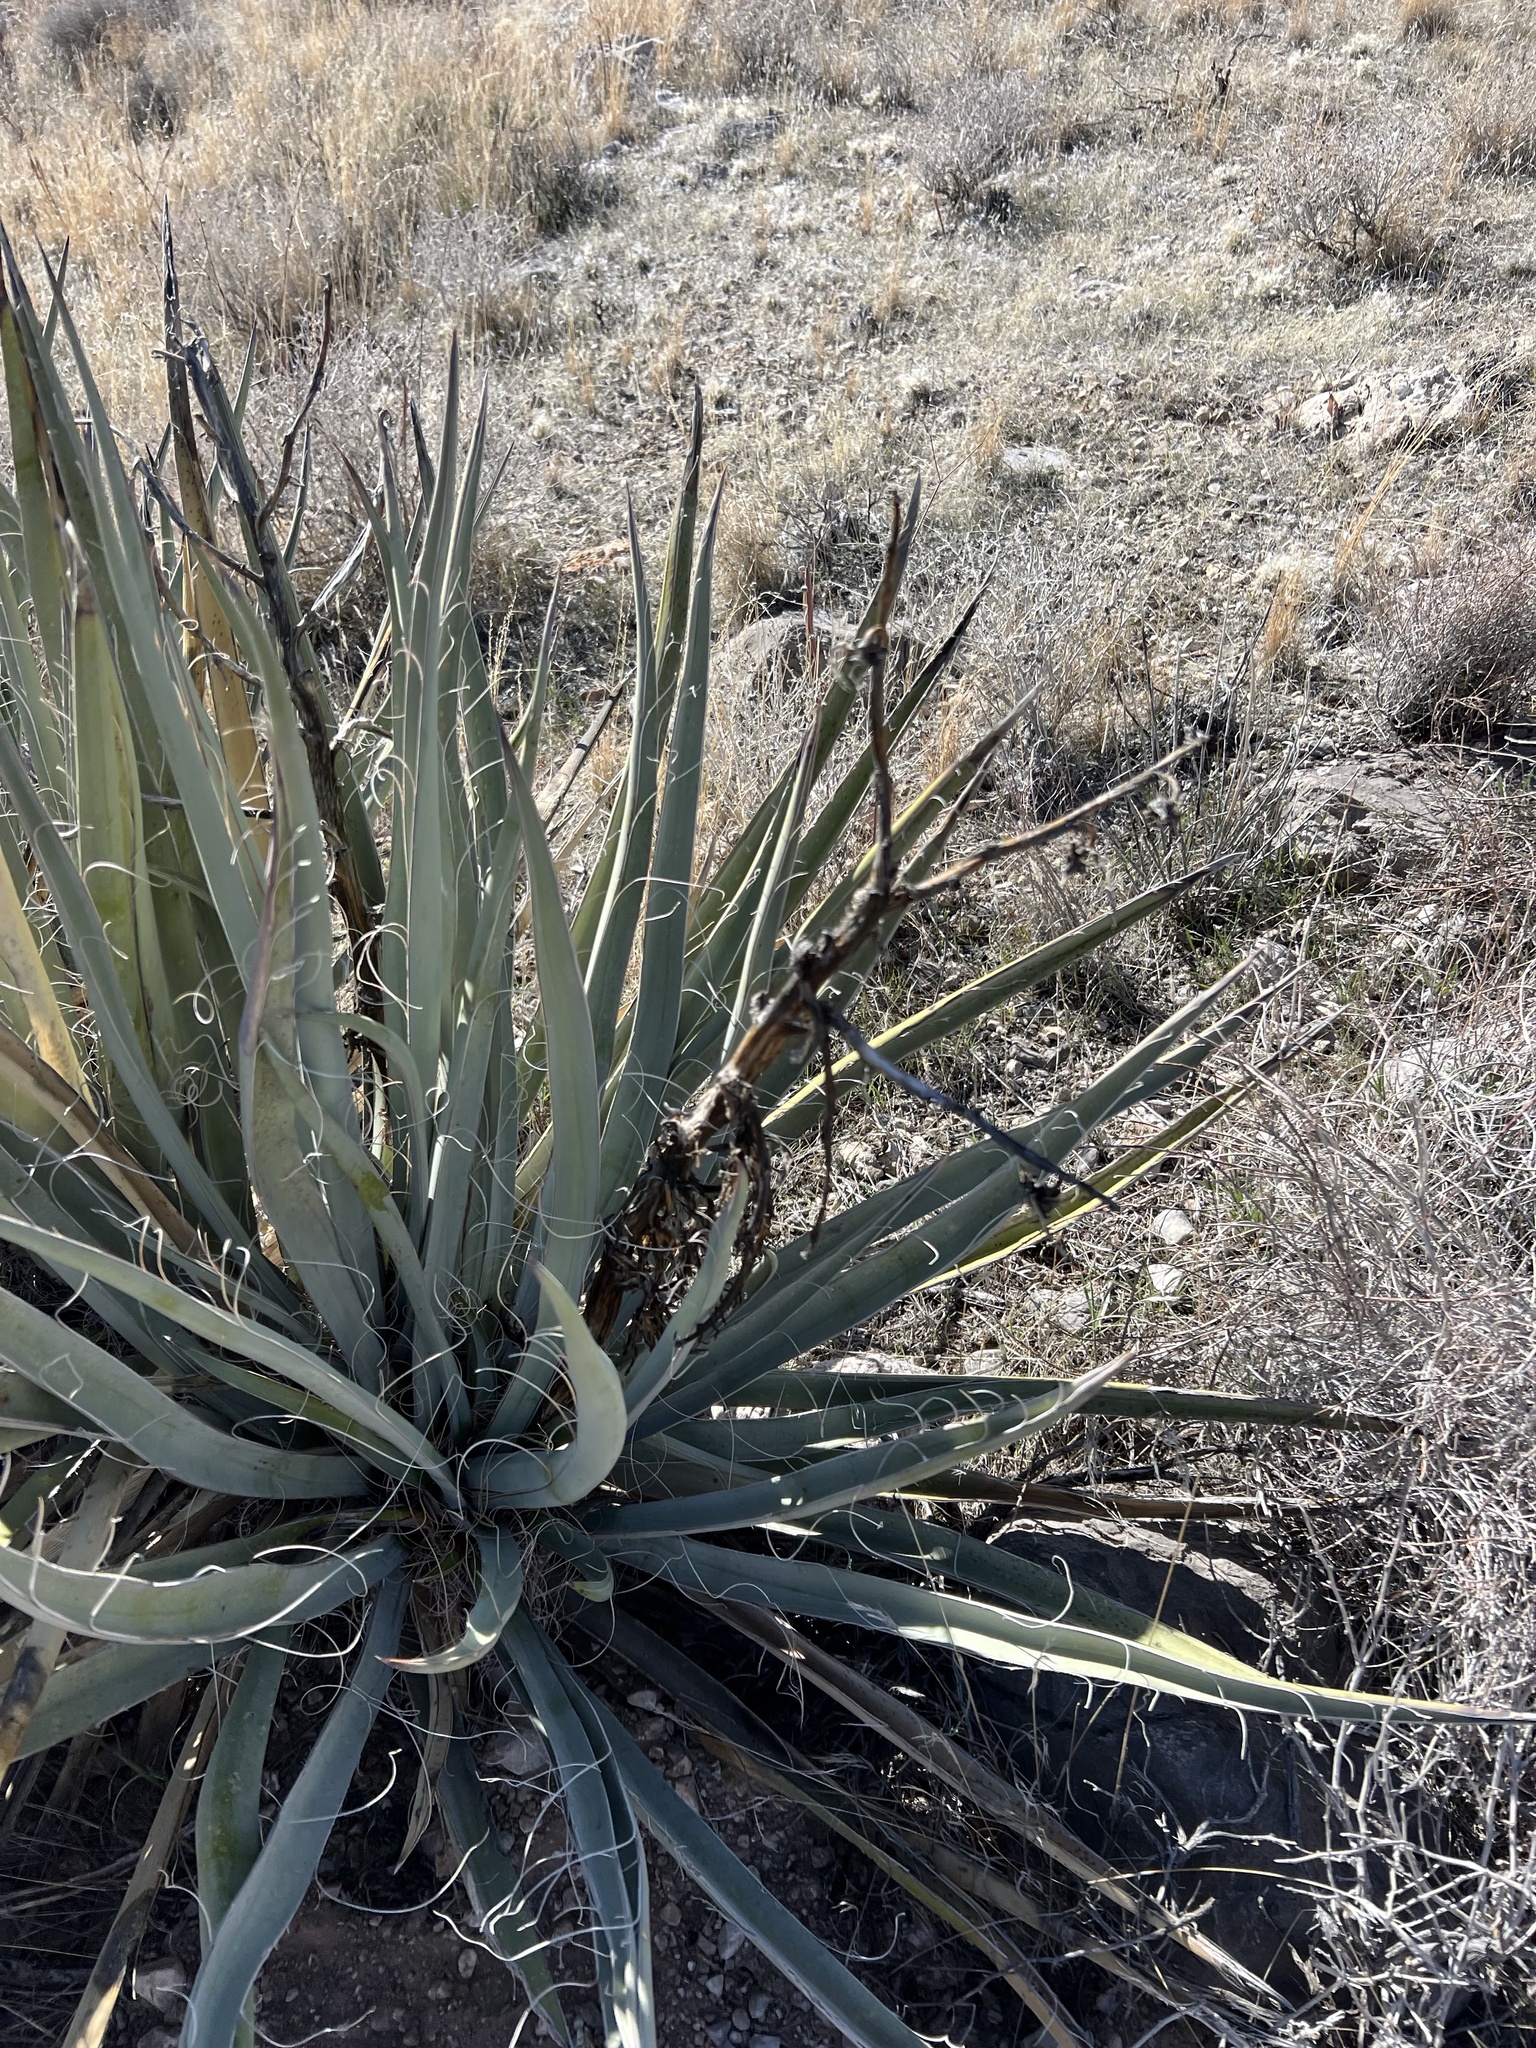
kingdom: Plantae
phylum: Tracheophyta
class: Liliopsida
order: Asparagales
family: Asparagaceae
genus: Yucca
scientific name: Yucca baccata
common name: Banana yucca
